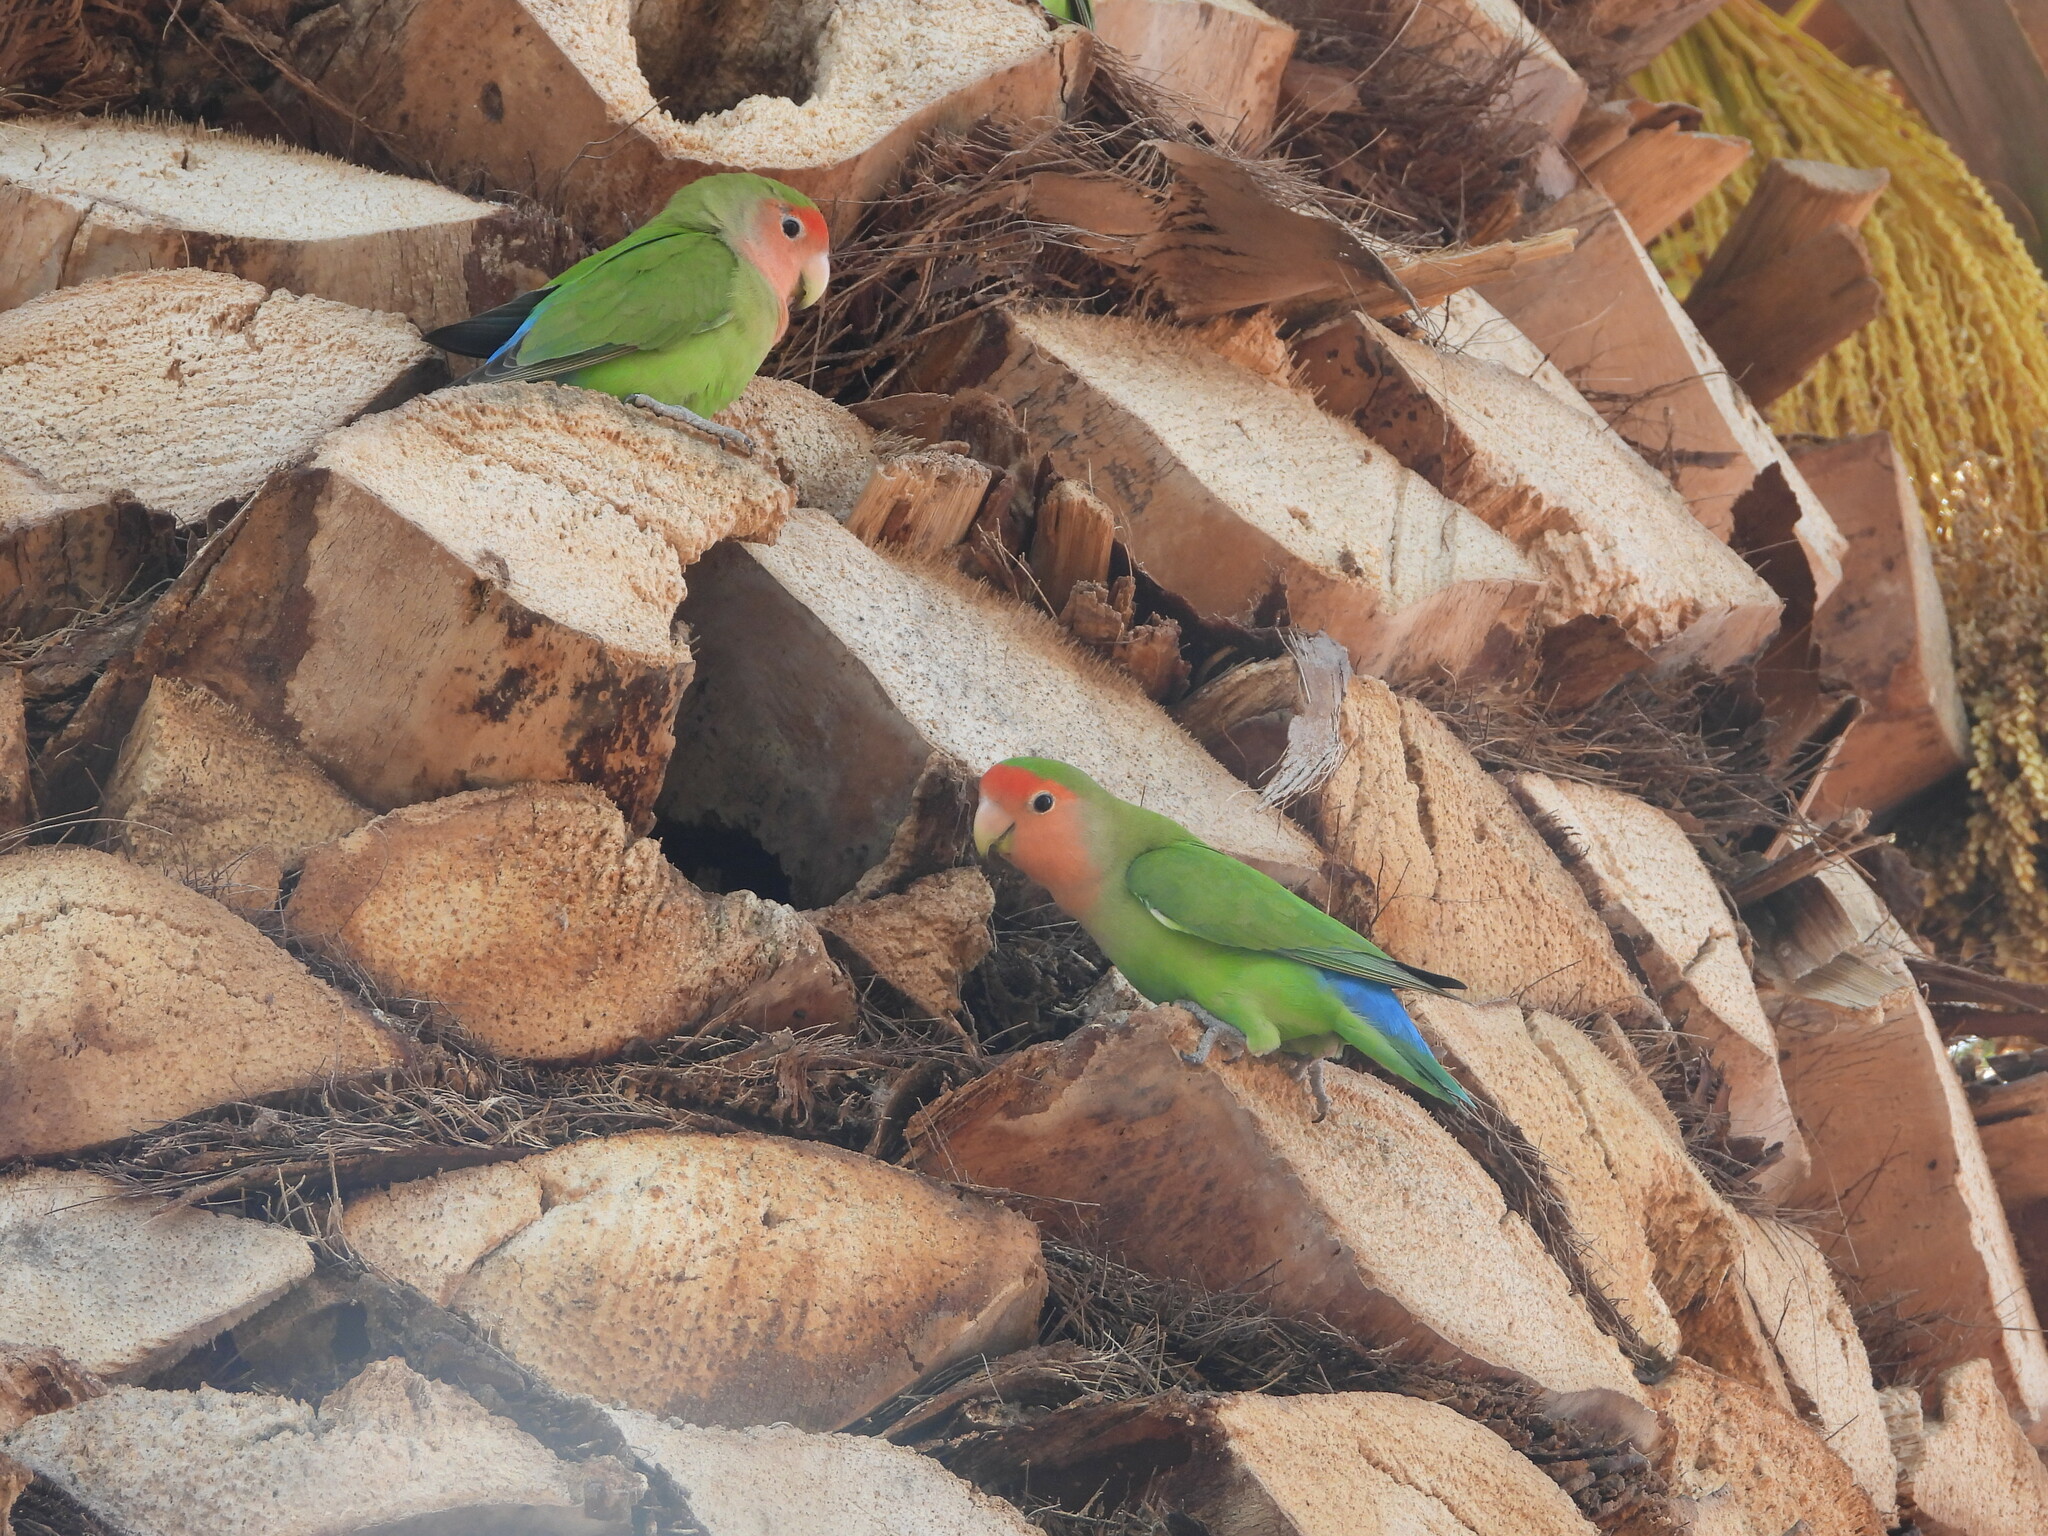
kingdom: Animalia
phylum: Chordata
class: Aves
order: Psittaciformes
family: Psittacidae
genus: Agapornis
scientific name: Agapornis roseicollis
